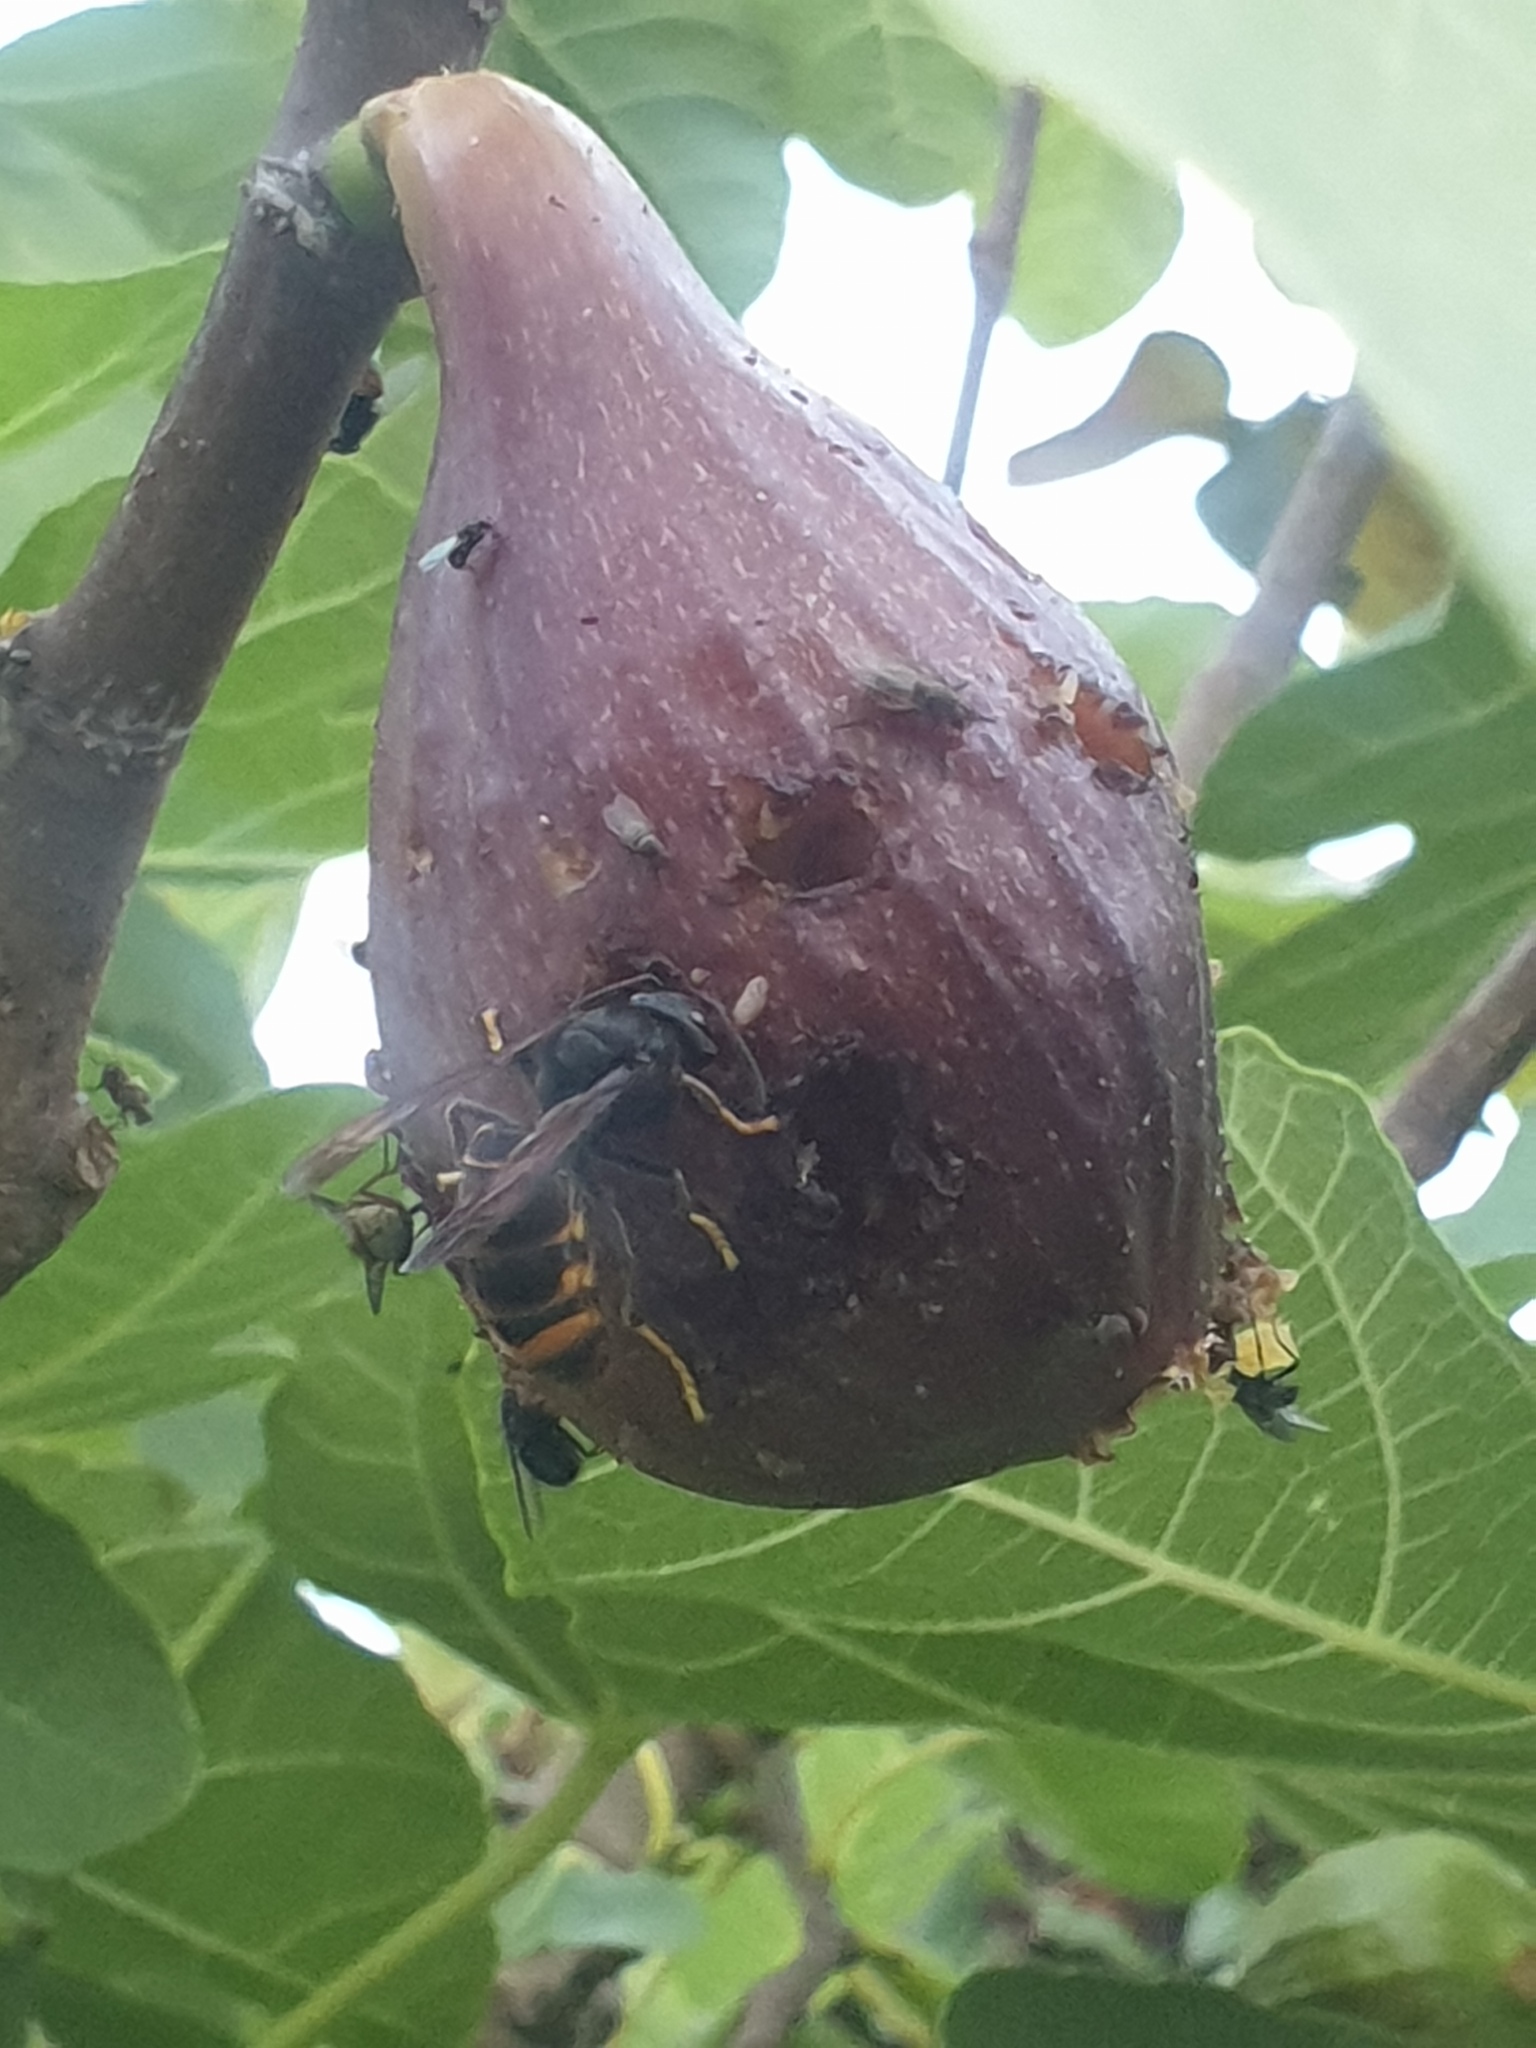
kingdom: Animalia
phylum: Arthropoda
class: Insecta
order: Hymenoptera
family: Vespidae
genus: Vespa
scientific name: Vespa velutina
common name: Asian hornet
